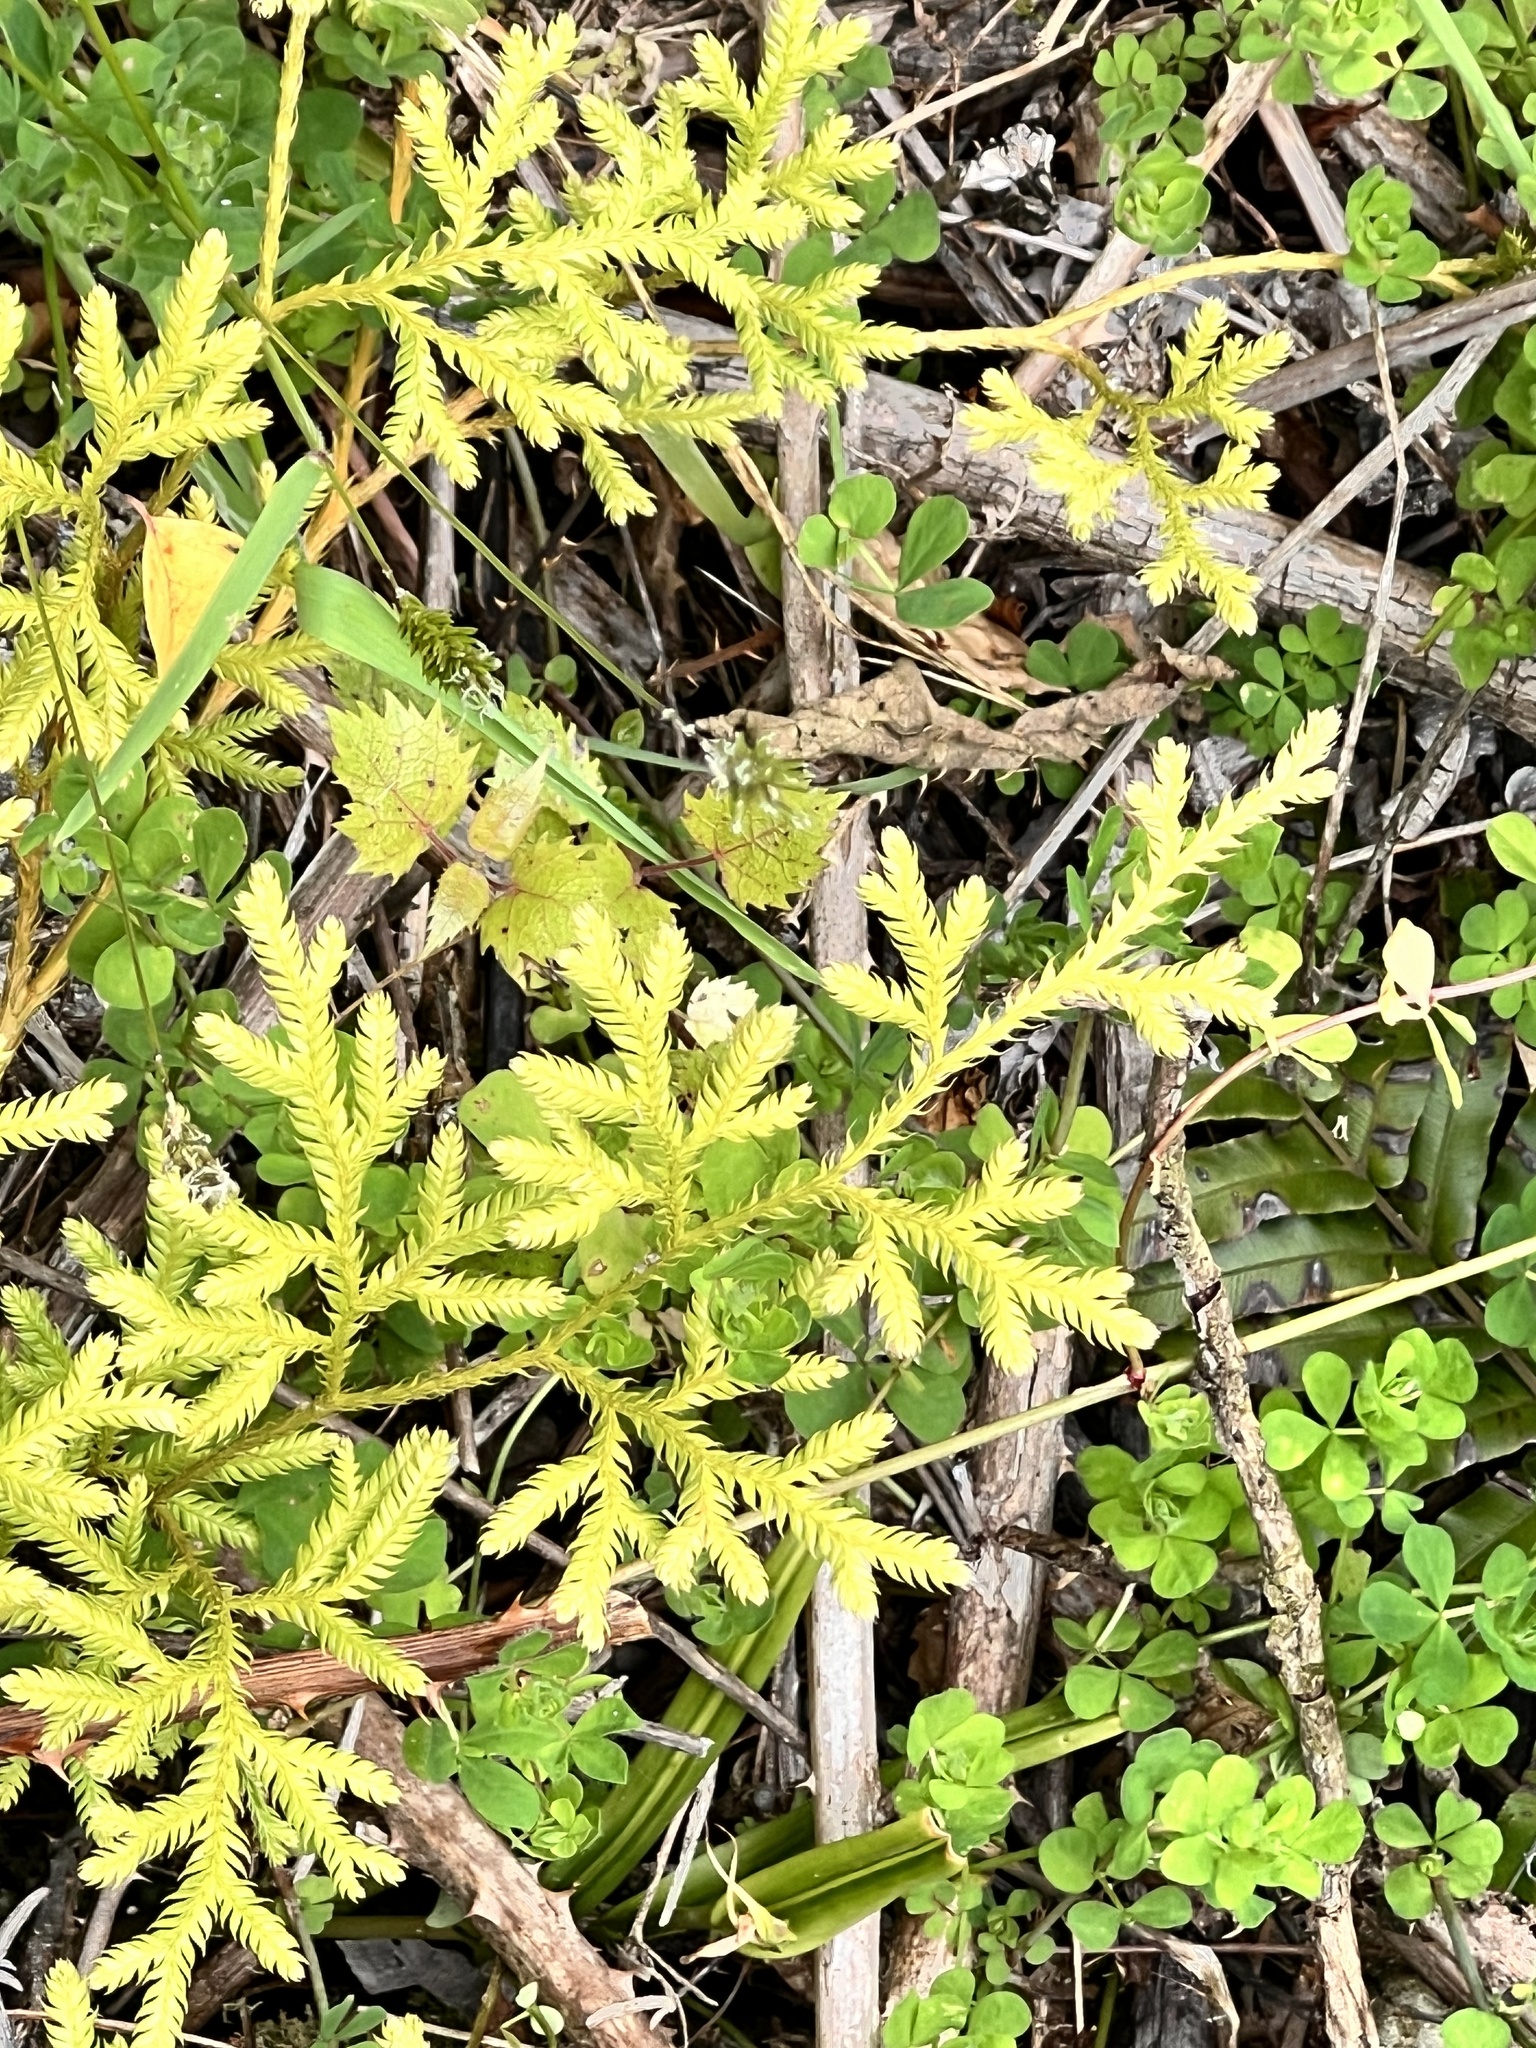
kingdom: Plantae
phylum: Tracheophyta
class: Lycopodiopsida
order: Lycopodiales
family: Lycopodiaceae
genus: Lycopodium
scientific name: Lycopodium volubile
